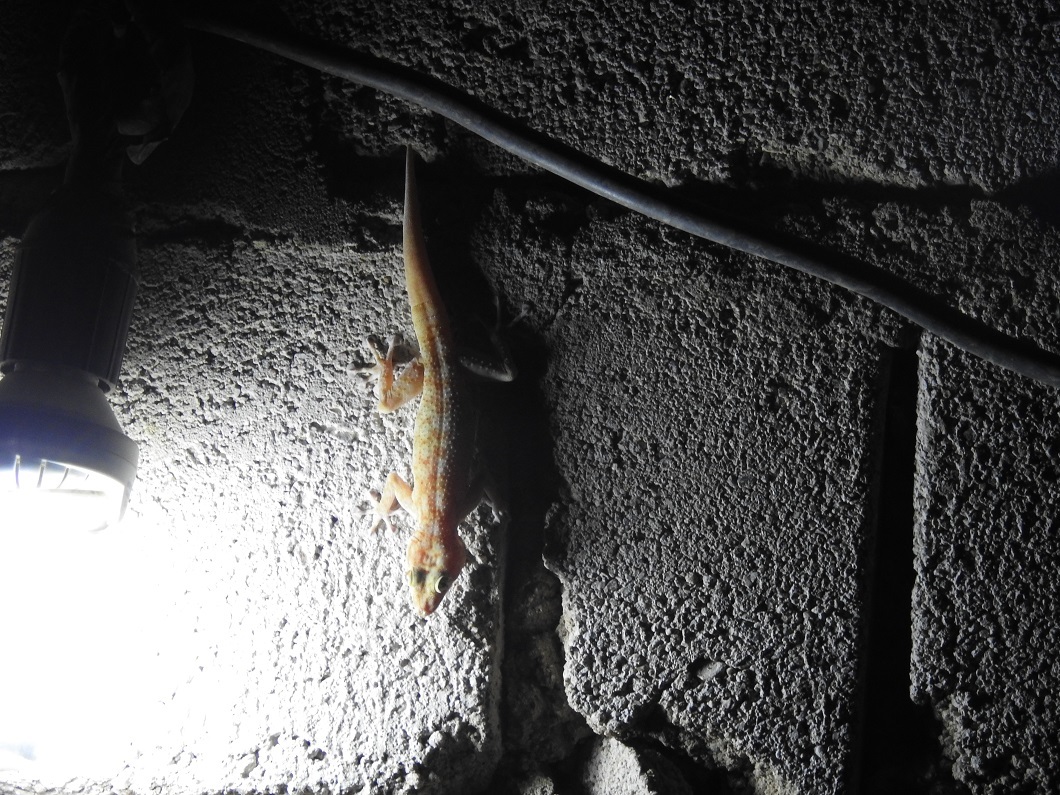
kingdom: Animalia
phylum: Chordata
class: Squamata
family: Phyllodactylidae
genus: Ptyodactylus
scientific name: Ptyodactylus togoensis
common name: Togo fan-footed gecko
